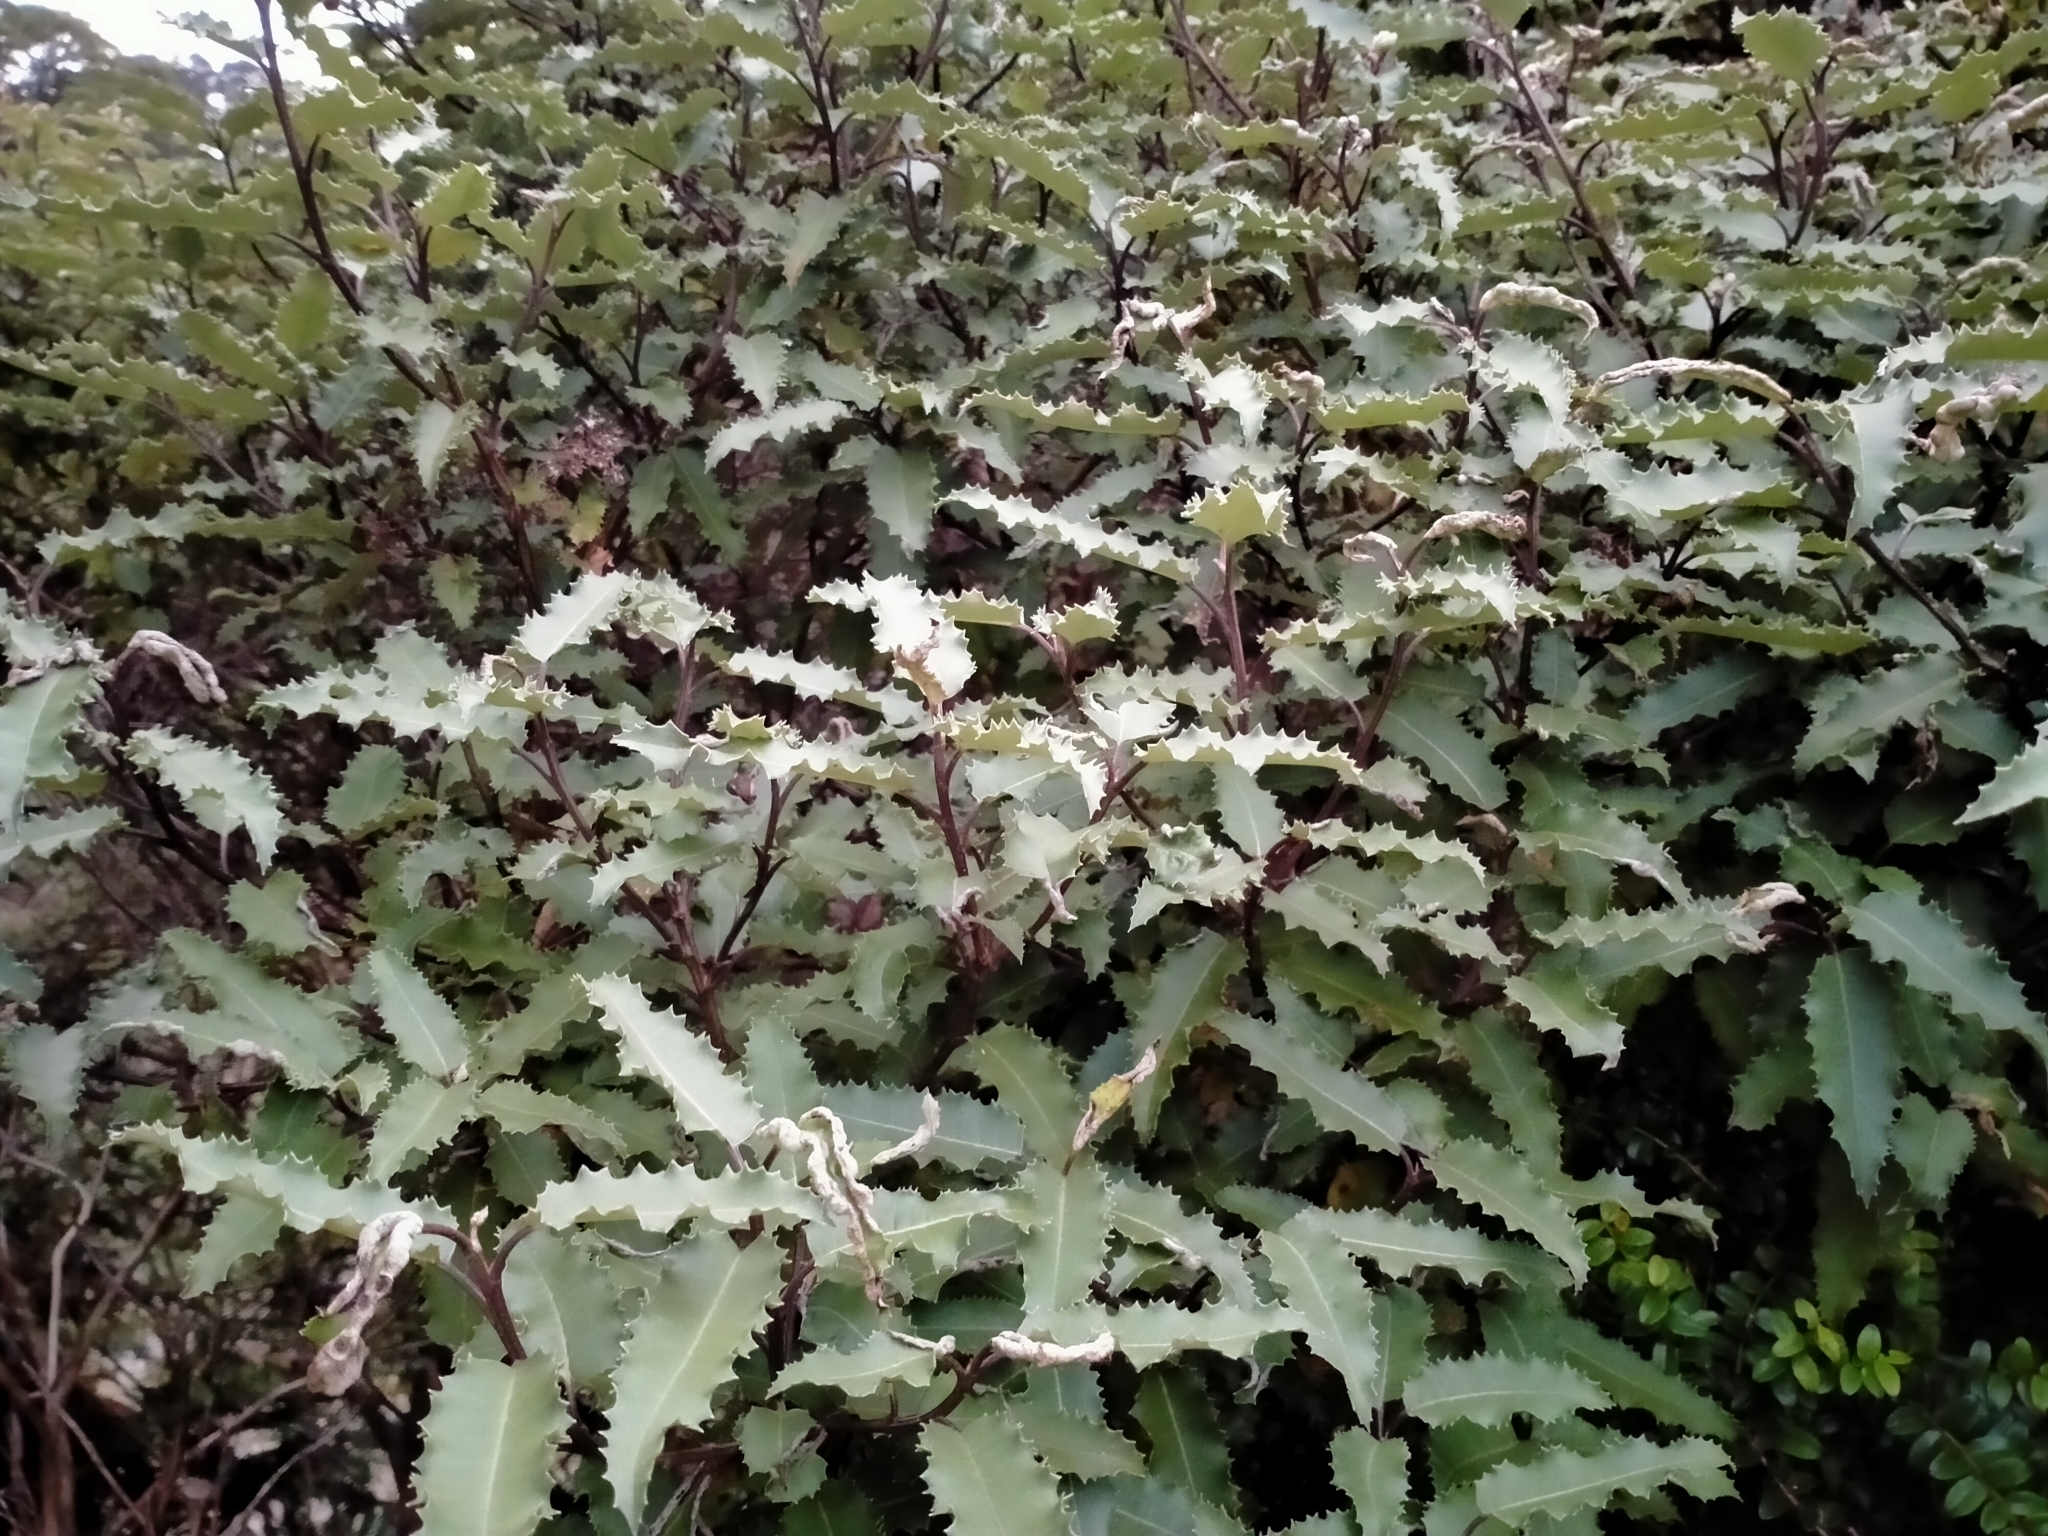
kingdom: Plantae
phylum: Tracheophyta
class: Magnoliopsida
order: Asterales
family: Asteraceae
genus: Olearia
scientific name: Olearia ilicifolia
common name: Maori-holly
